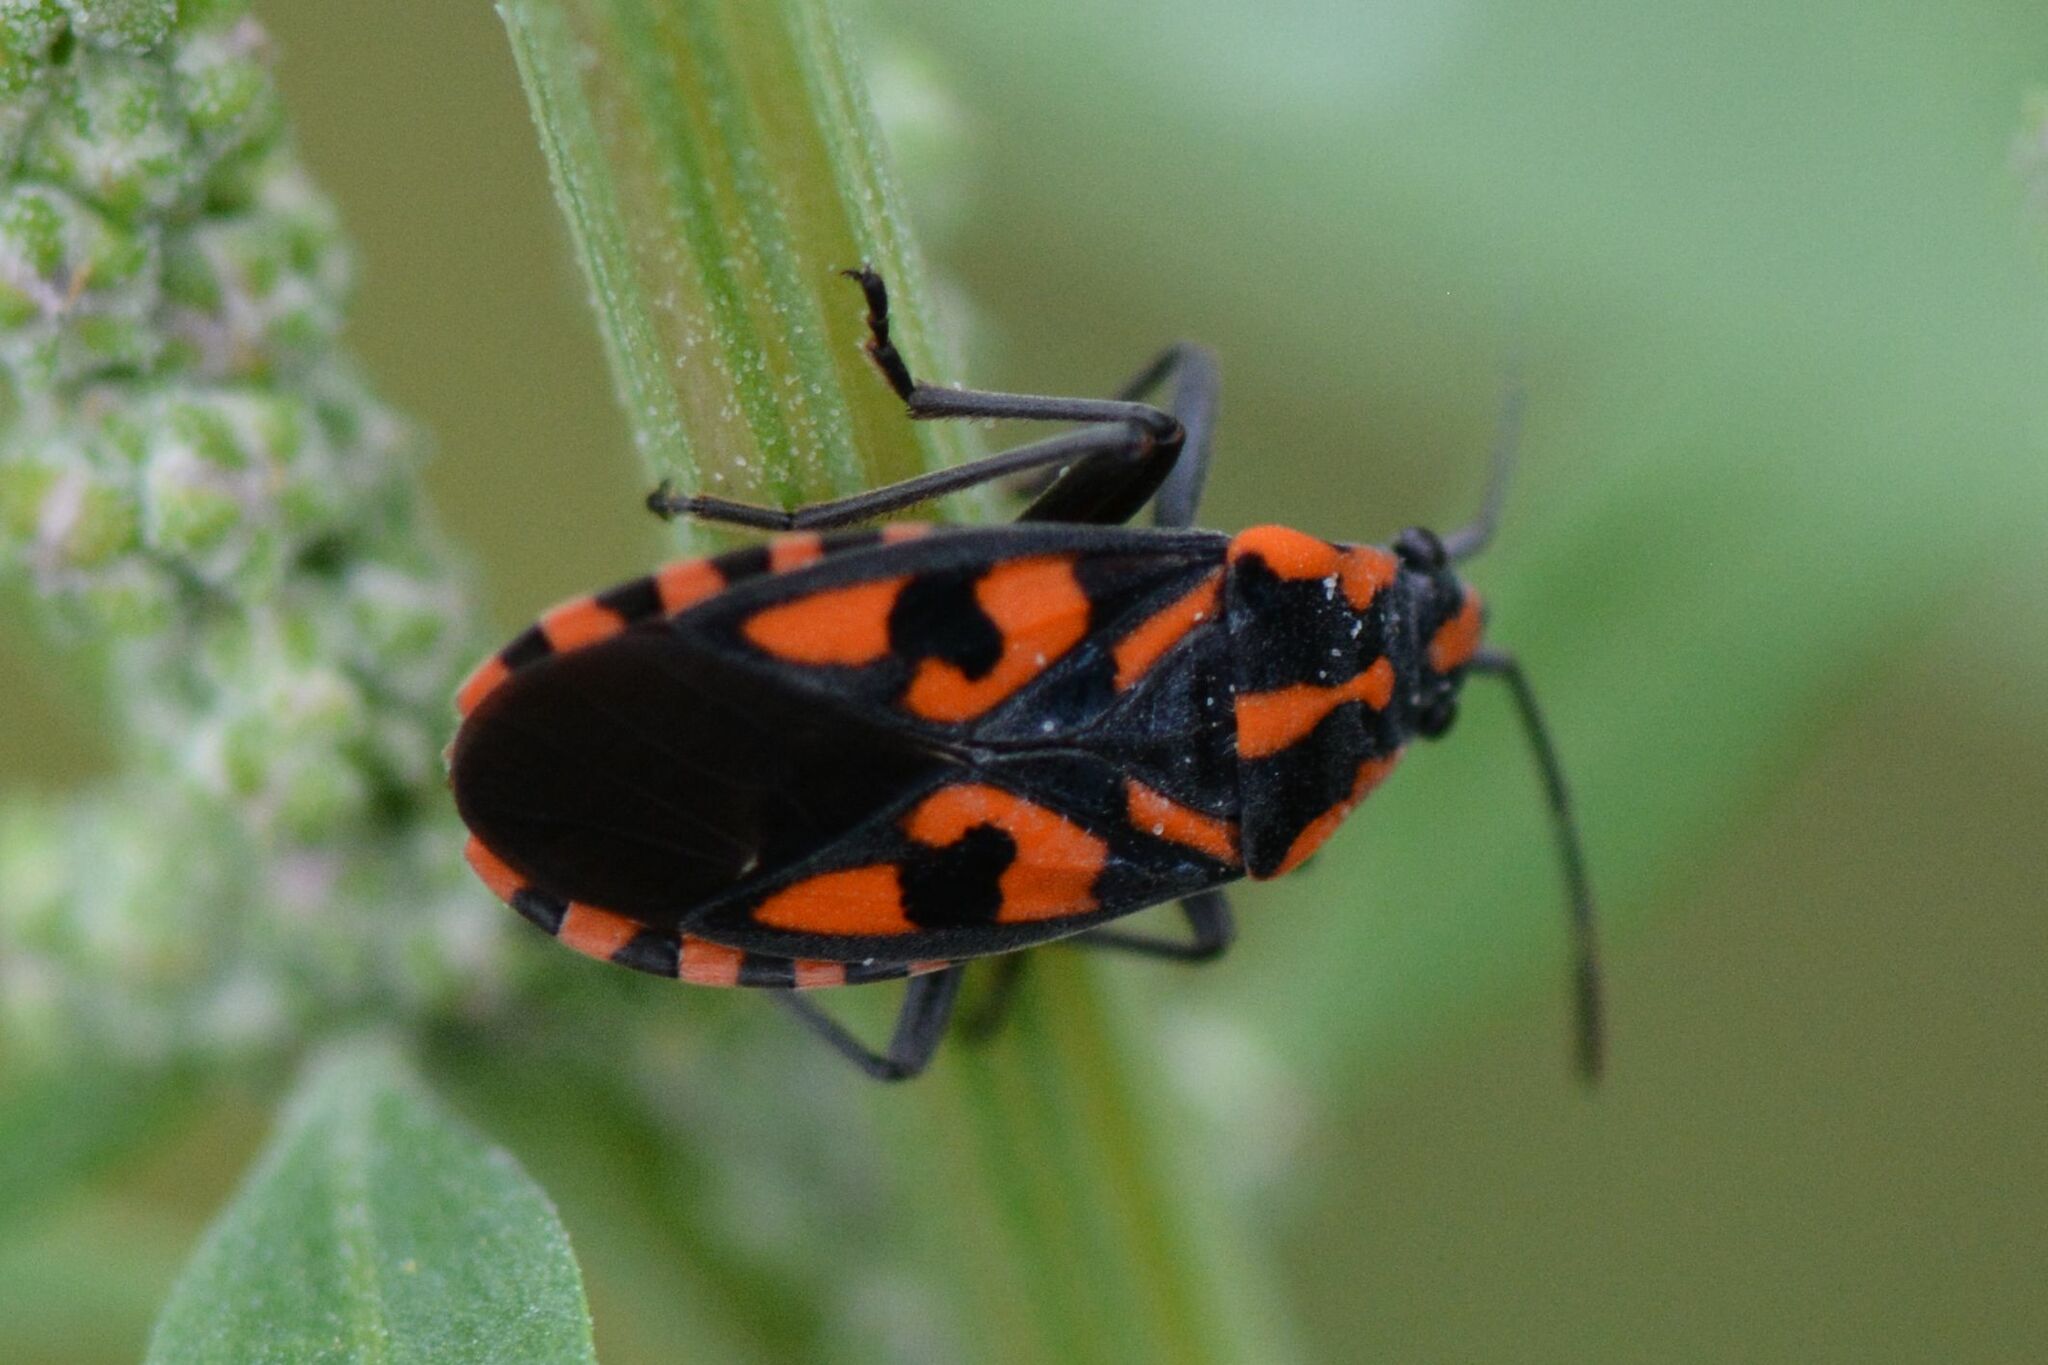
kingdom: Animalia
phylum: Arthropoda
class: Insecta
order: Hemiptera
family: Lygaeidae
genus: Spilostethus
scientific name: Spilostethus saxatilis
